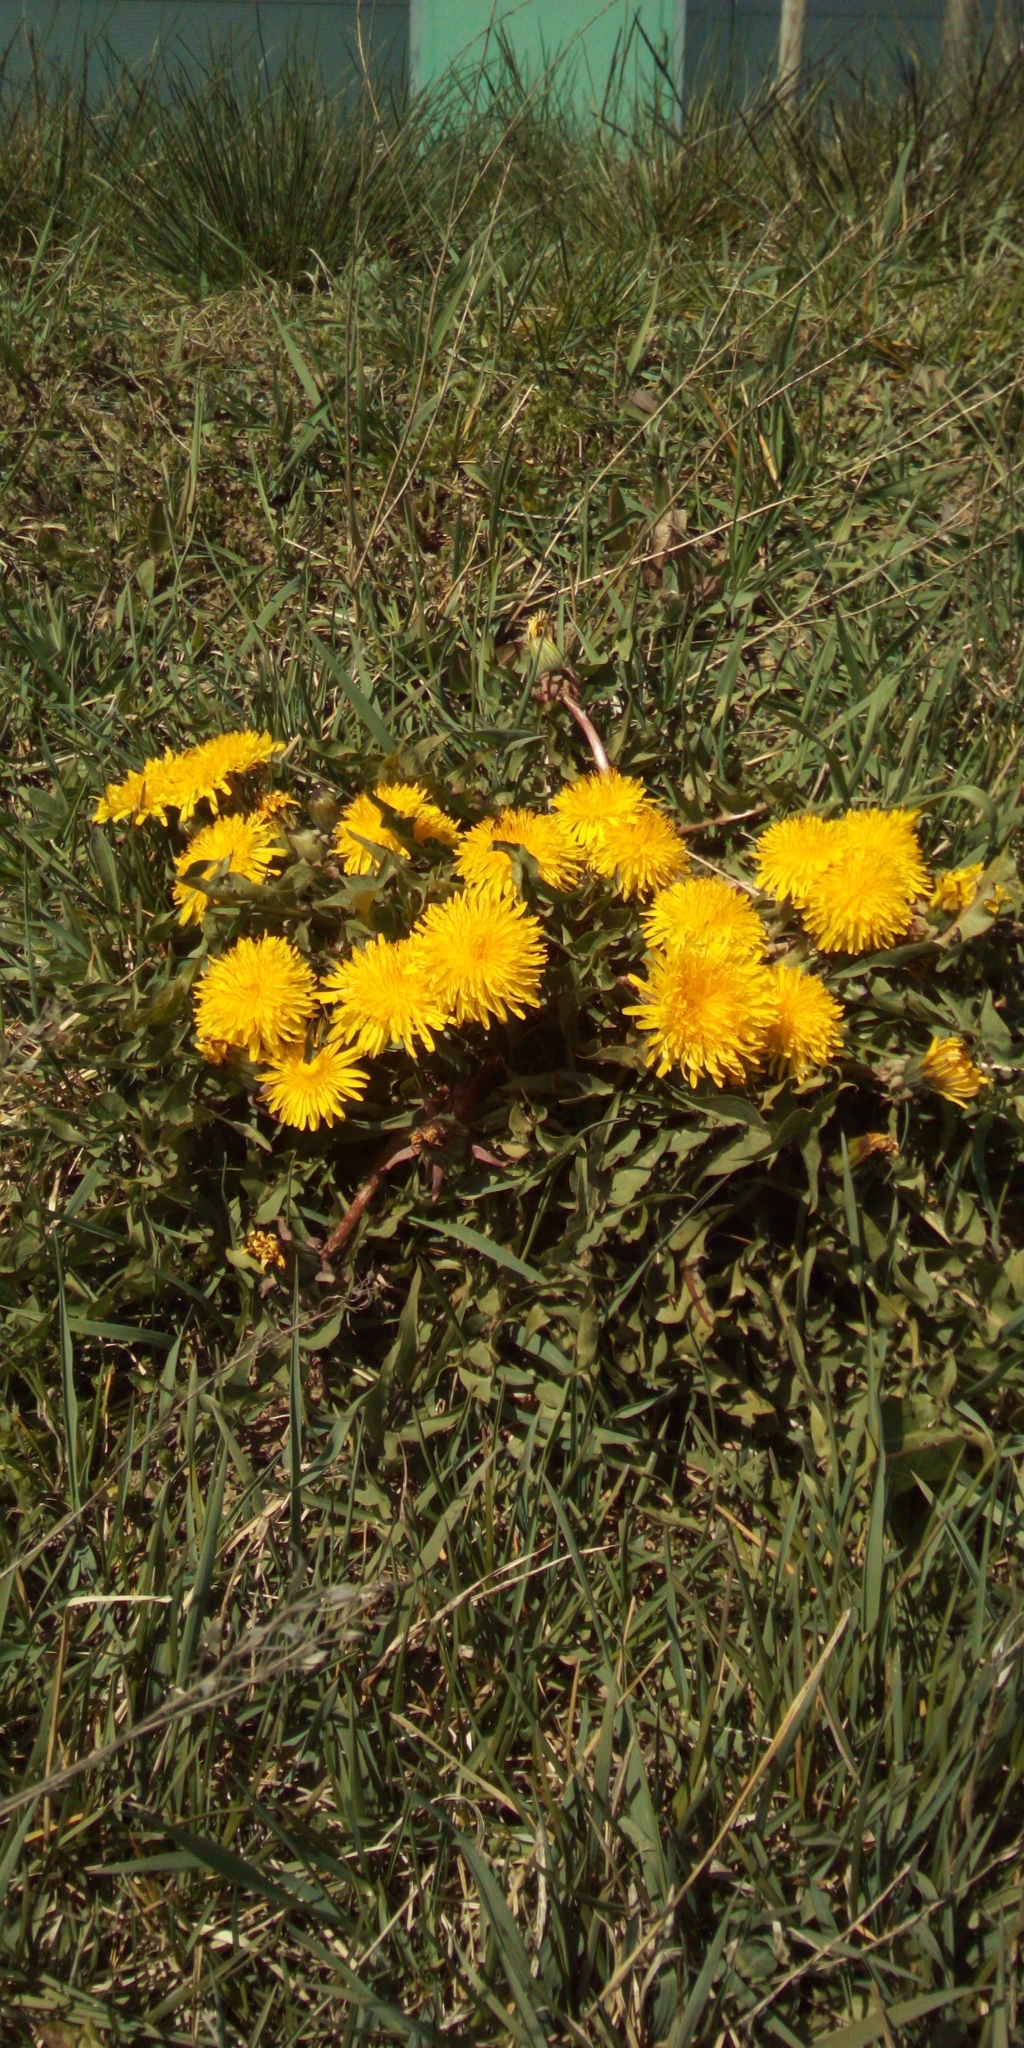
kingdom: Plantae
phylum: Tracheophyta
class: Magnoliopsida
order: Asterales
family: Asteraceae
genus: Taraxacum
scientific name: Taraxacum officinale
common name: Common dandelion
